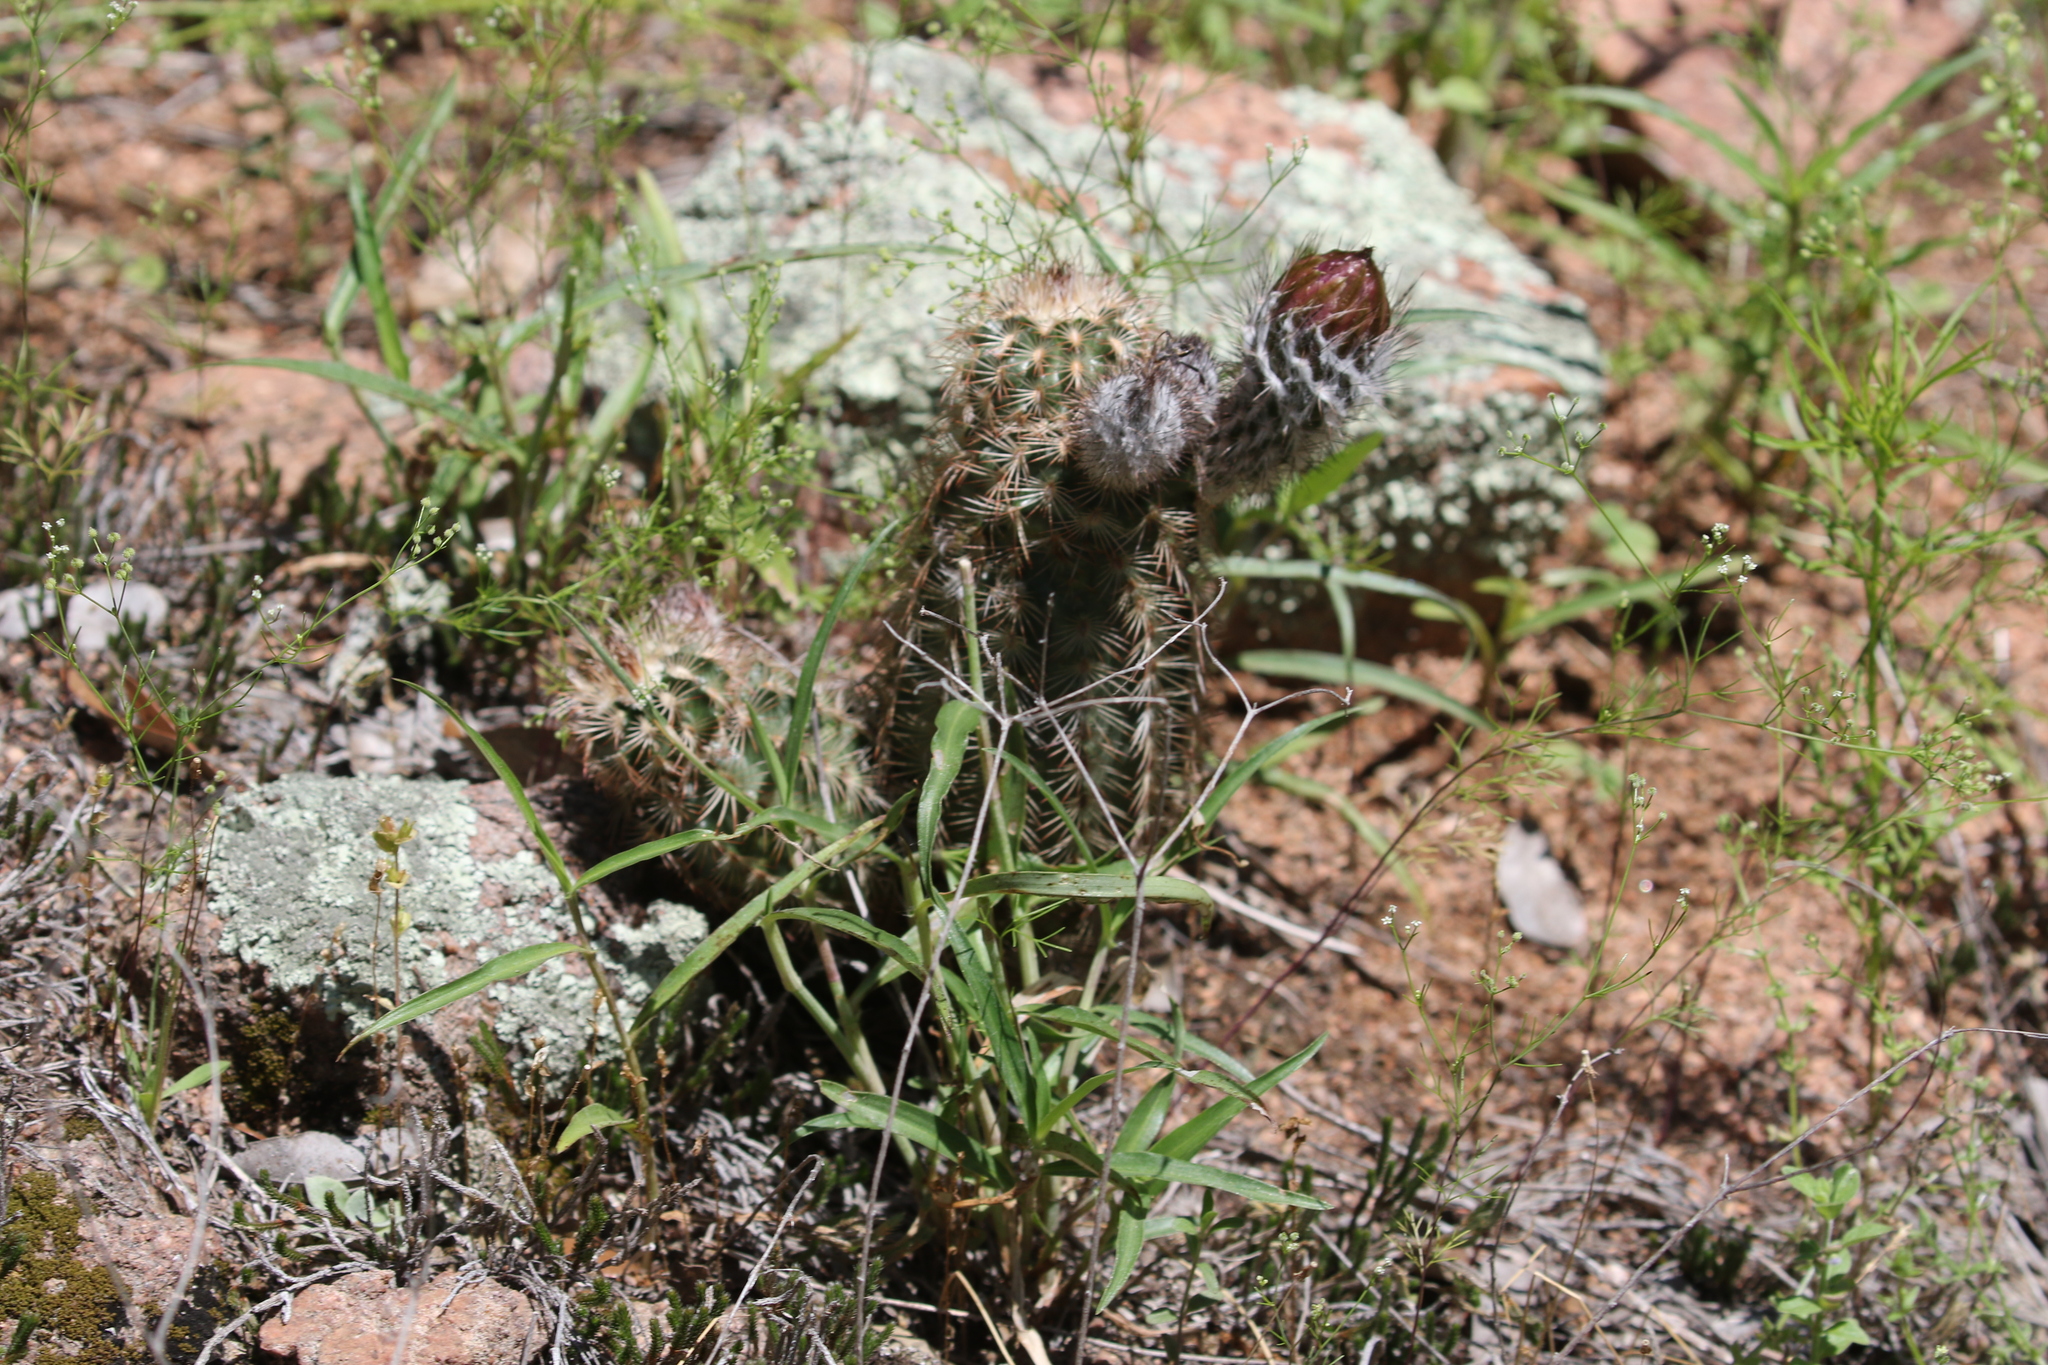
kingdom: Plantae
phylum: Tracheophyta
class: Magnoliopsida
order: Caryophyllales
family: Cactaceae
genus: Echinocereus
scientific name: Echinocereus reichenbachii
